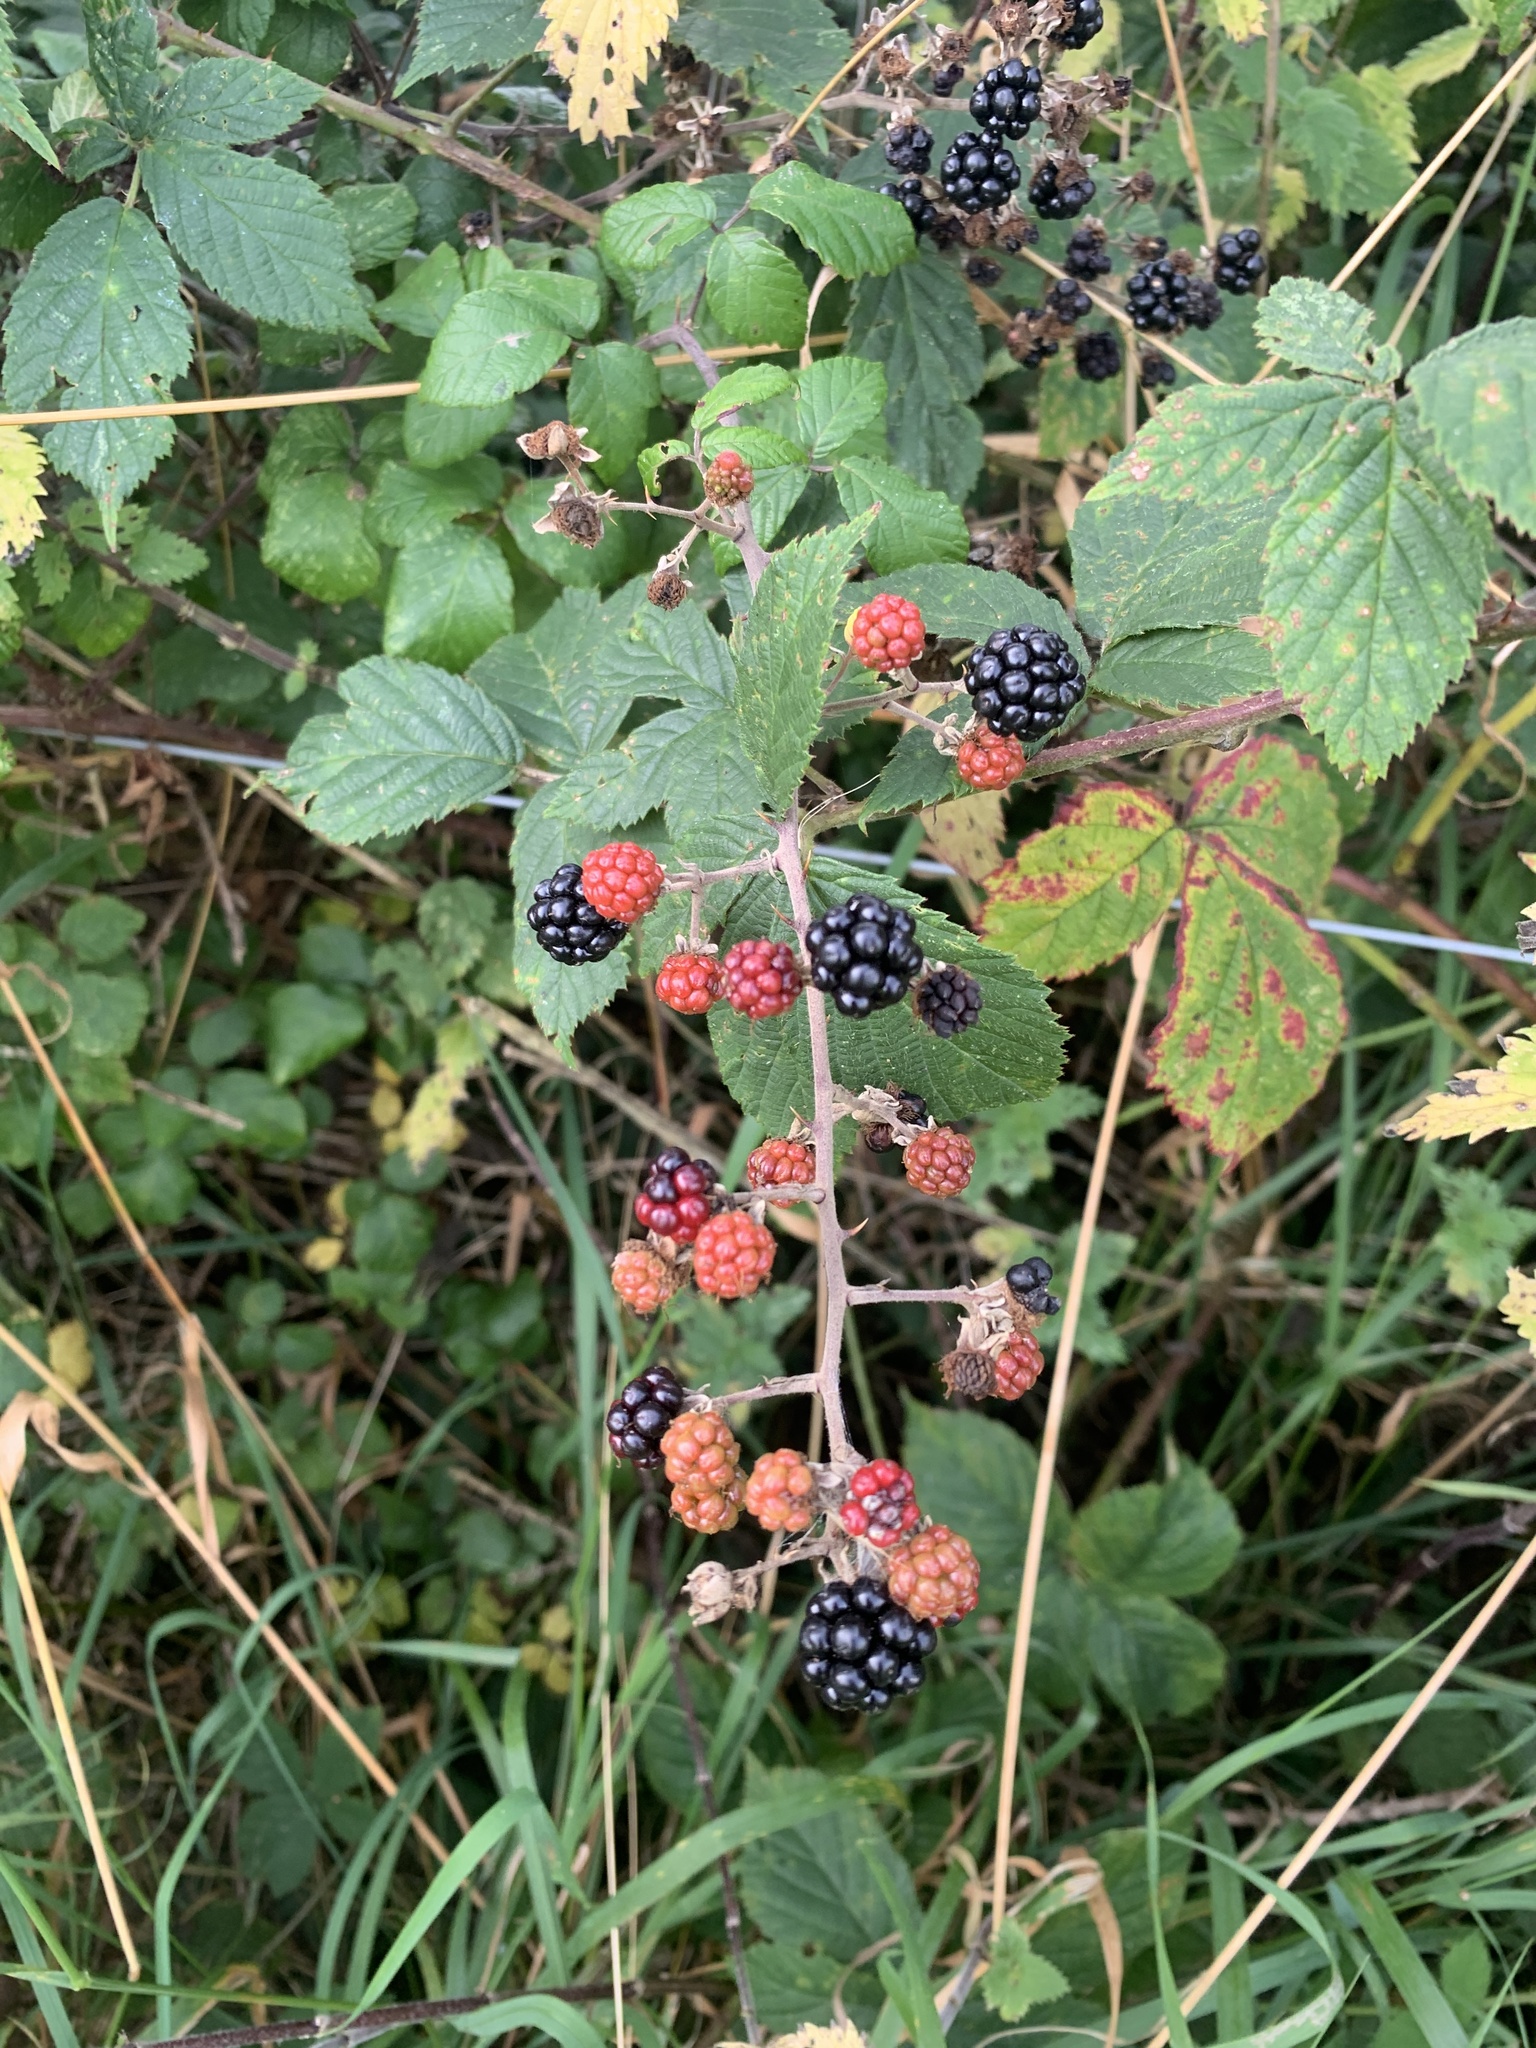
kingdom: Plantae
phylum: Tracheophyta
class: Magnoliopsida
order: Rosales
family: Rosaceae
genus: Rubus
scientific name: Rubus fruticosus
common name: Blackberry, bramble
